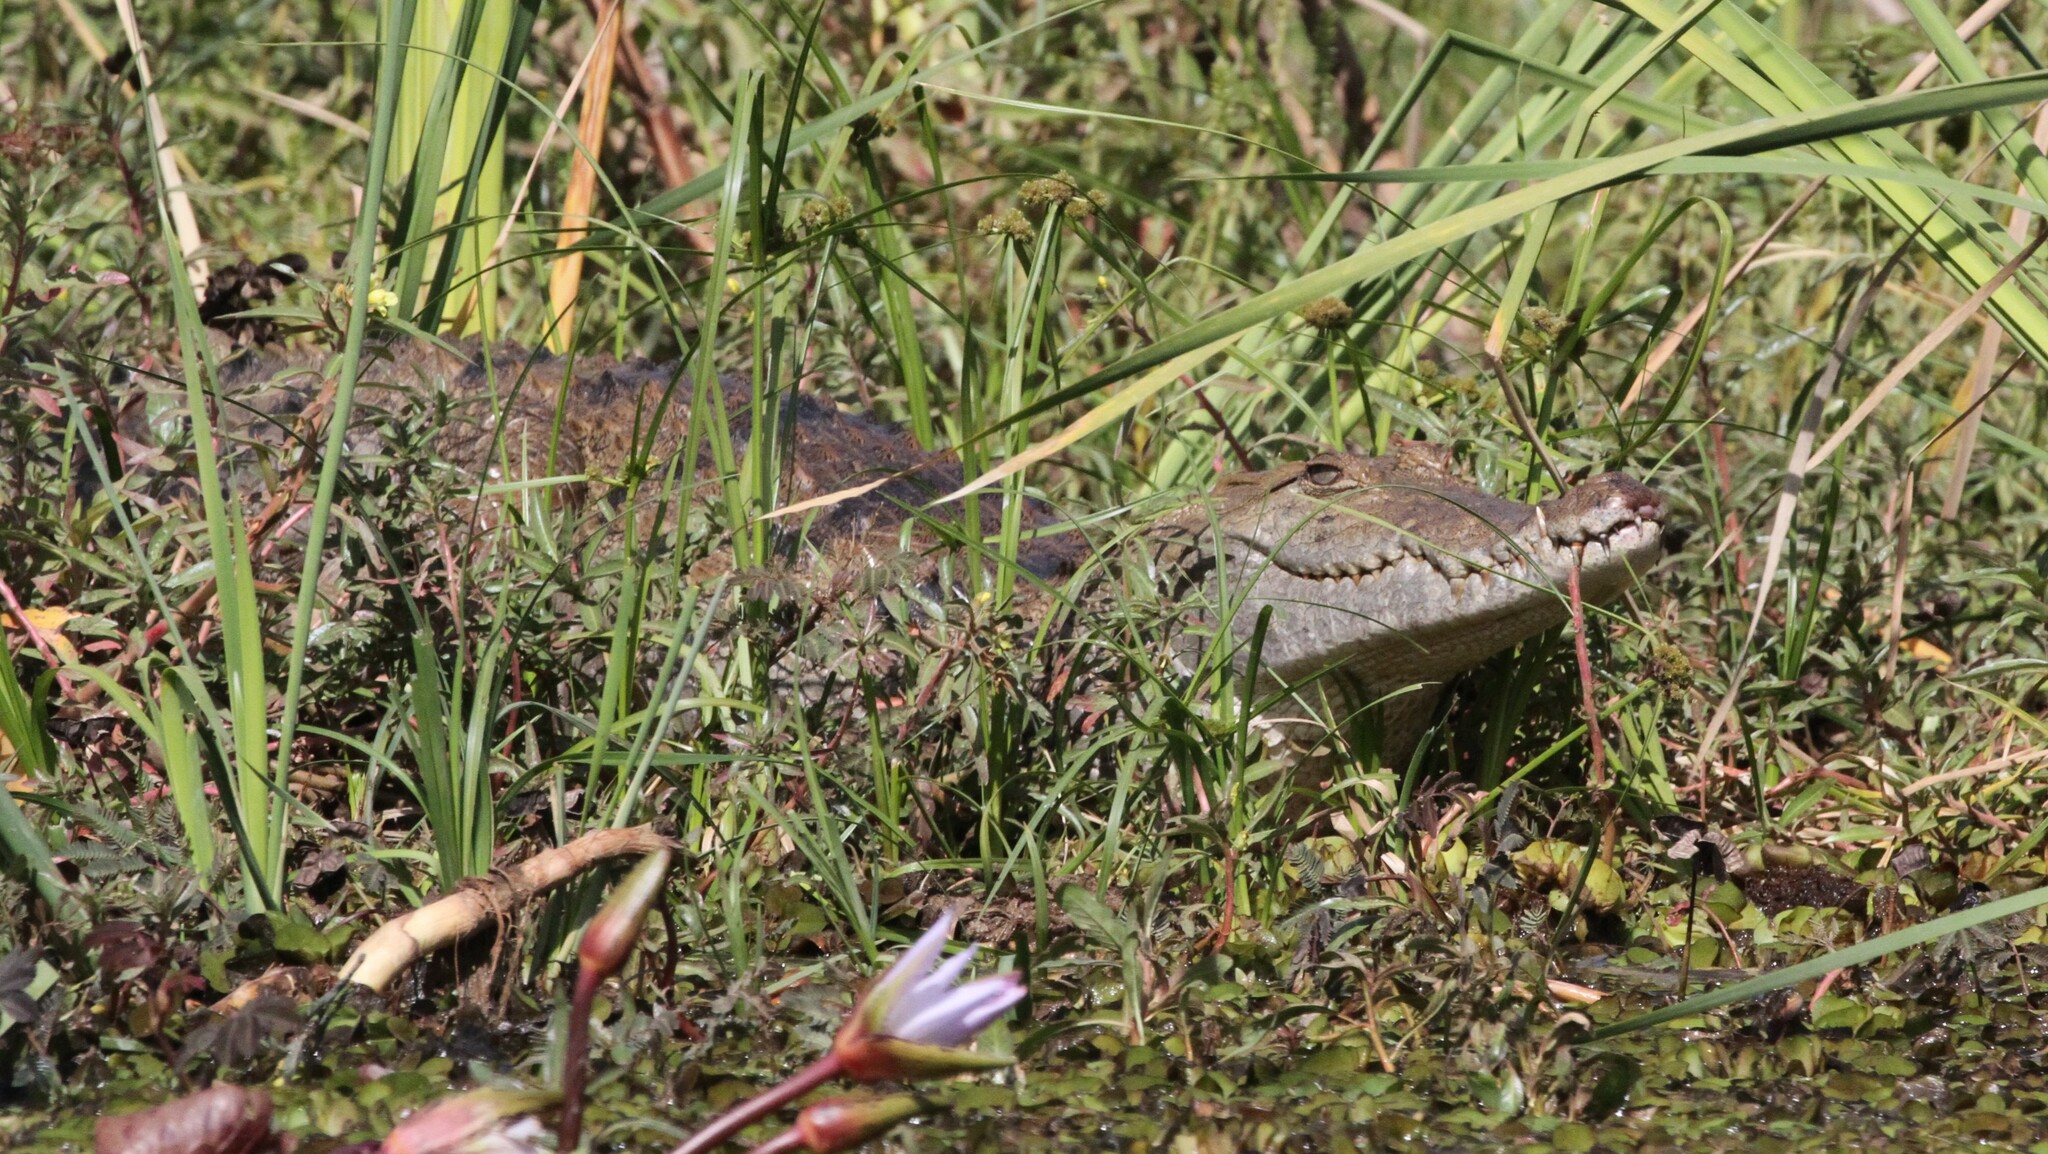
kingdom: Animalia
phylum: Chordata
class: Crocodylia
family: Crocodylidae
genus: Crocodylus
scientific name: Crocodylus suchus
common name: West african crocodile
